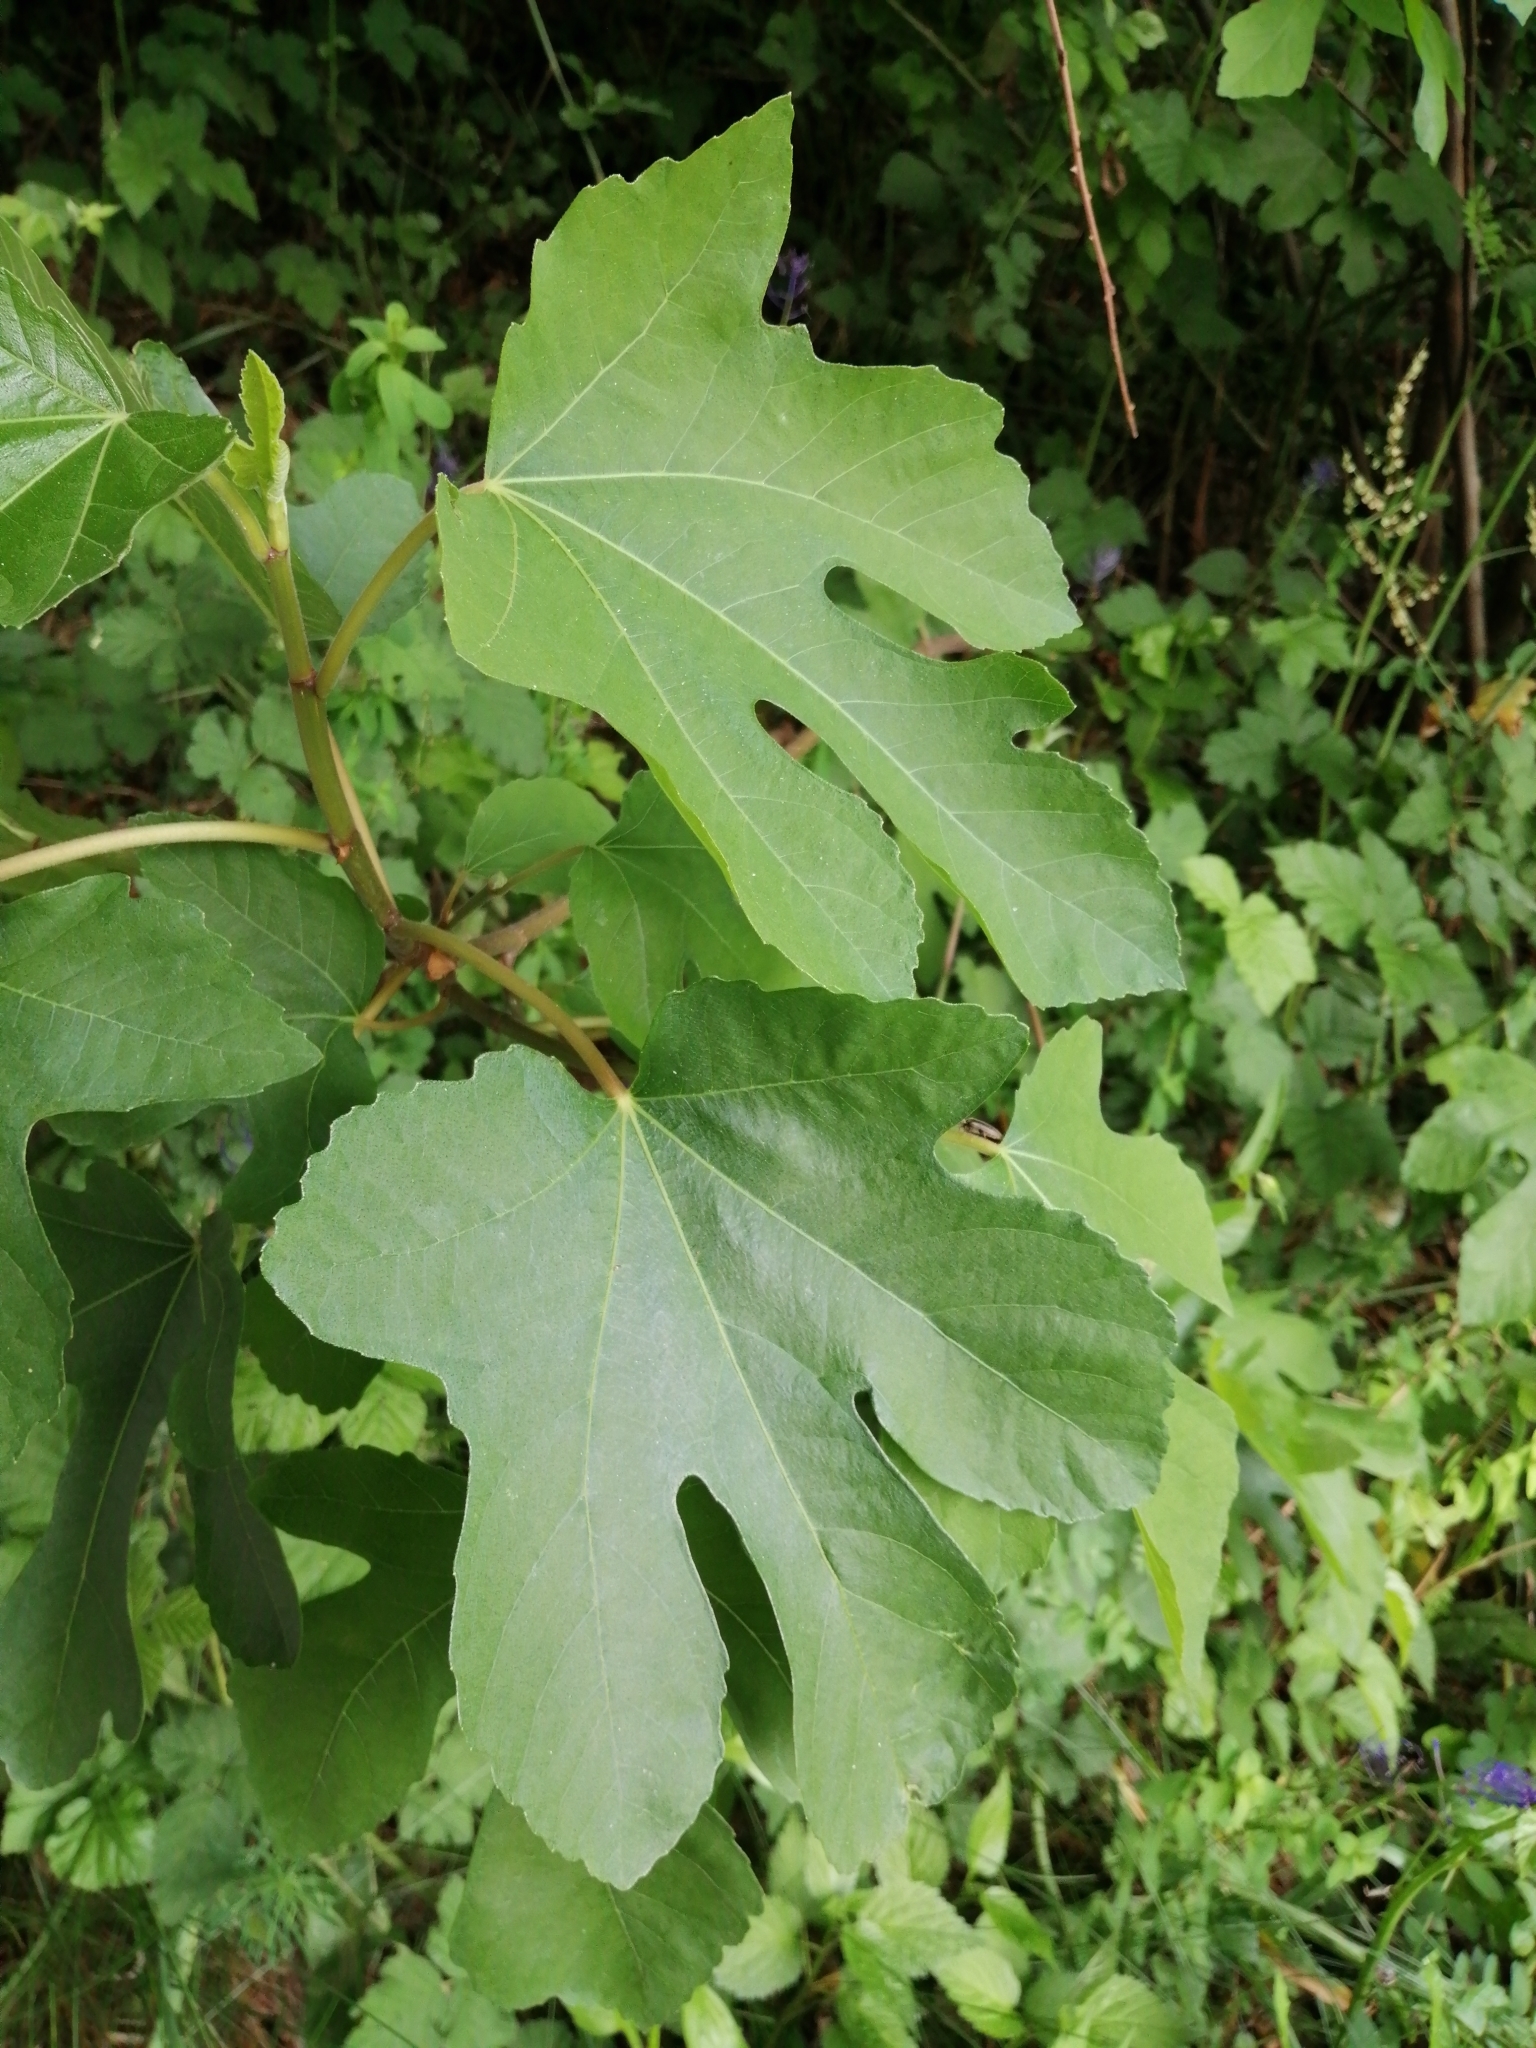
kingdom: Plantae
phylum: Tracheophyta
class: Magnoliopsida
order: Rosales
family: Moraceae
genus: Ficus
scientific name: Ficus carica
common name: Fig
